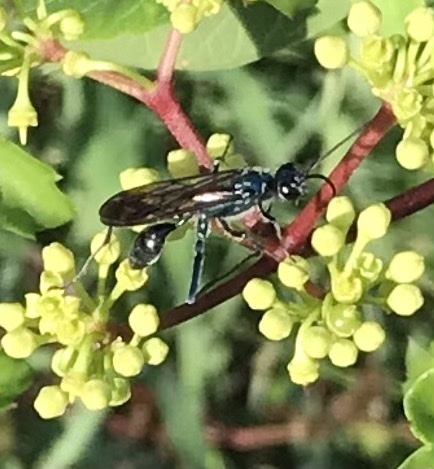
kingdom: Animalia
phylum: Arthropoda
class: Insecta
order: Hymenoptera
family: Sphecidae
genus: Chalybion
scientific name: Chalybion zimmermanni
